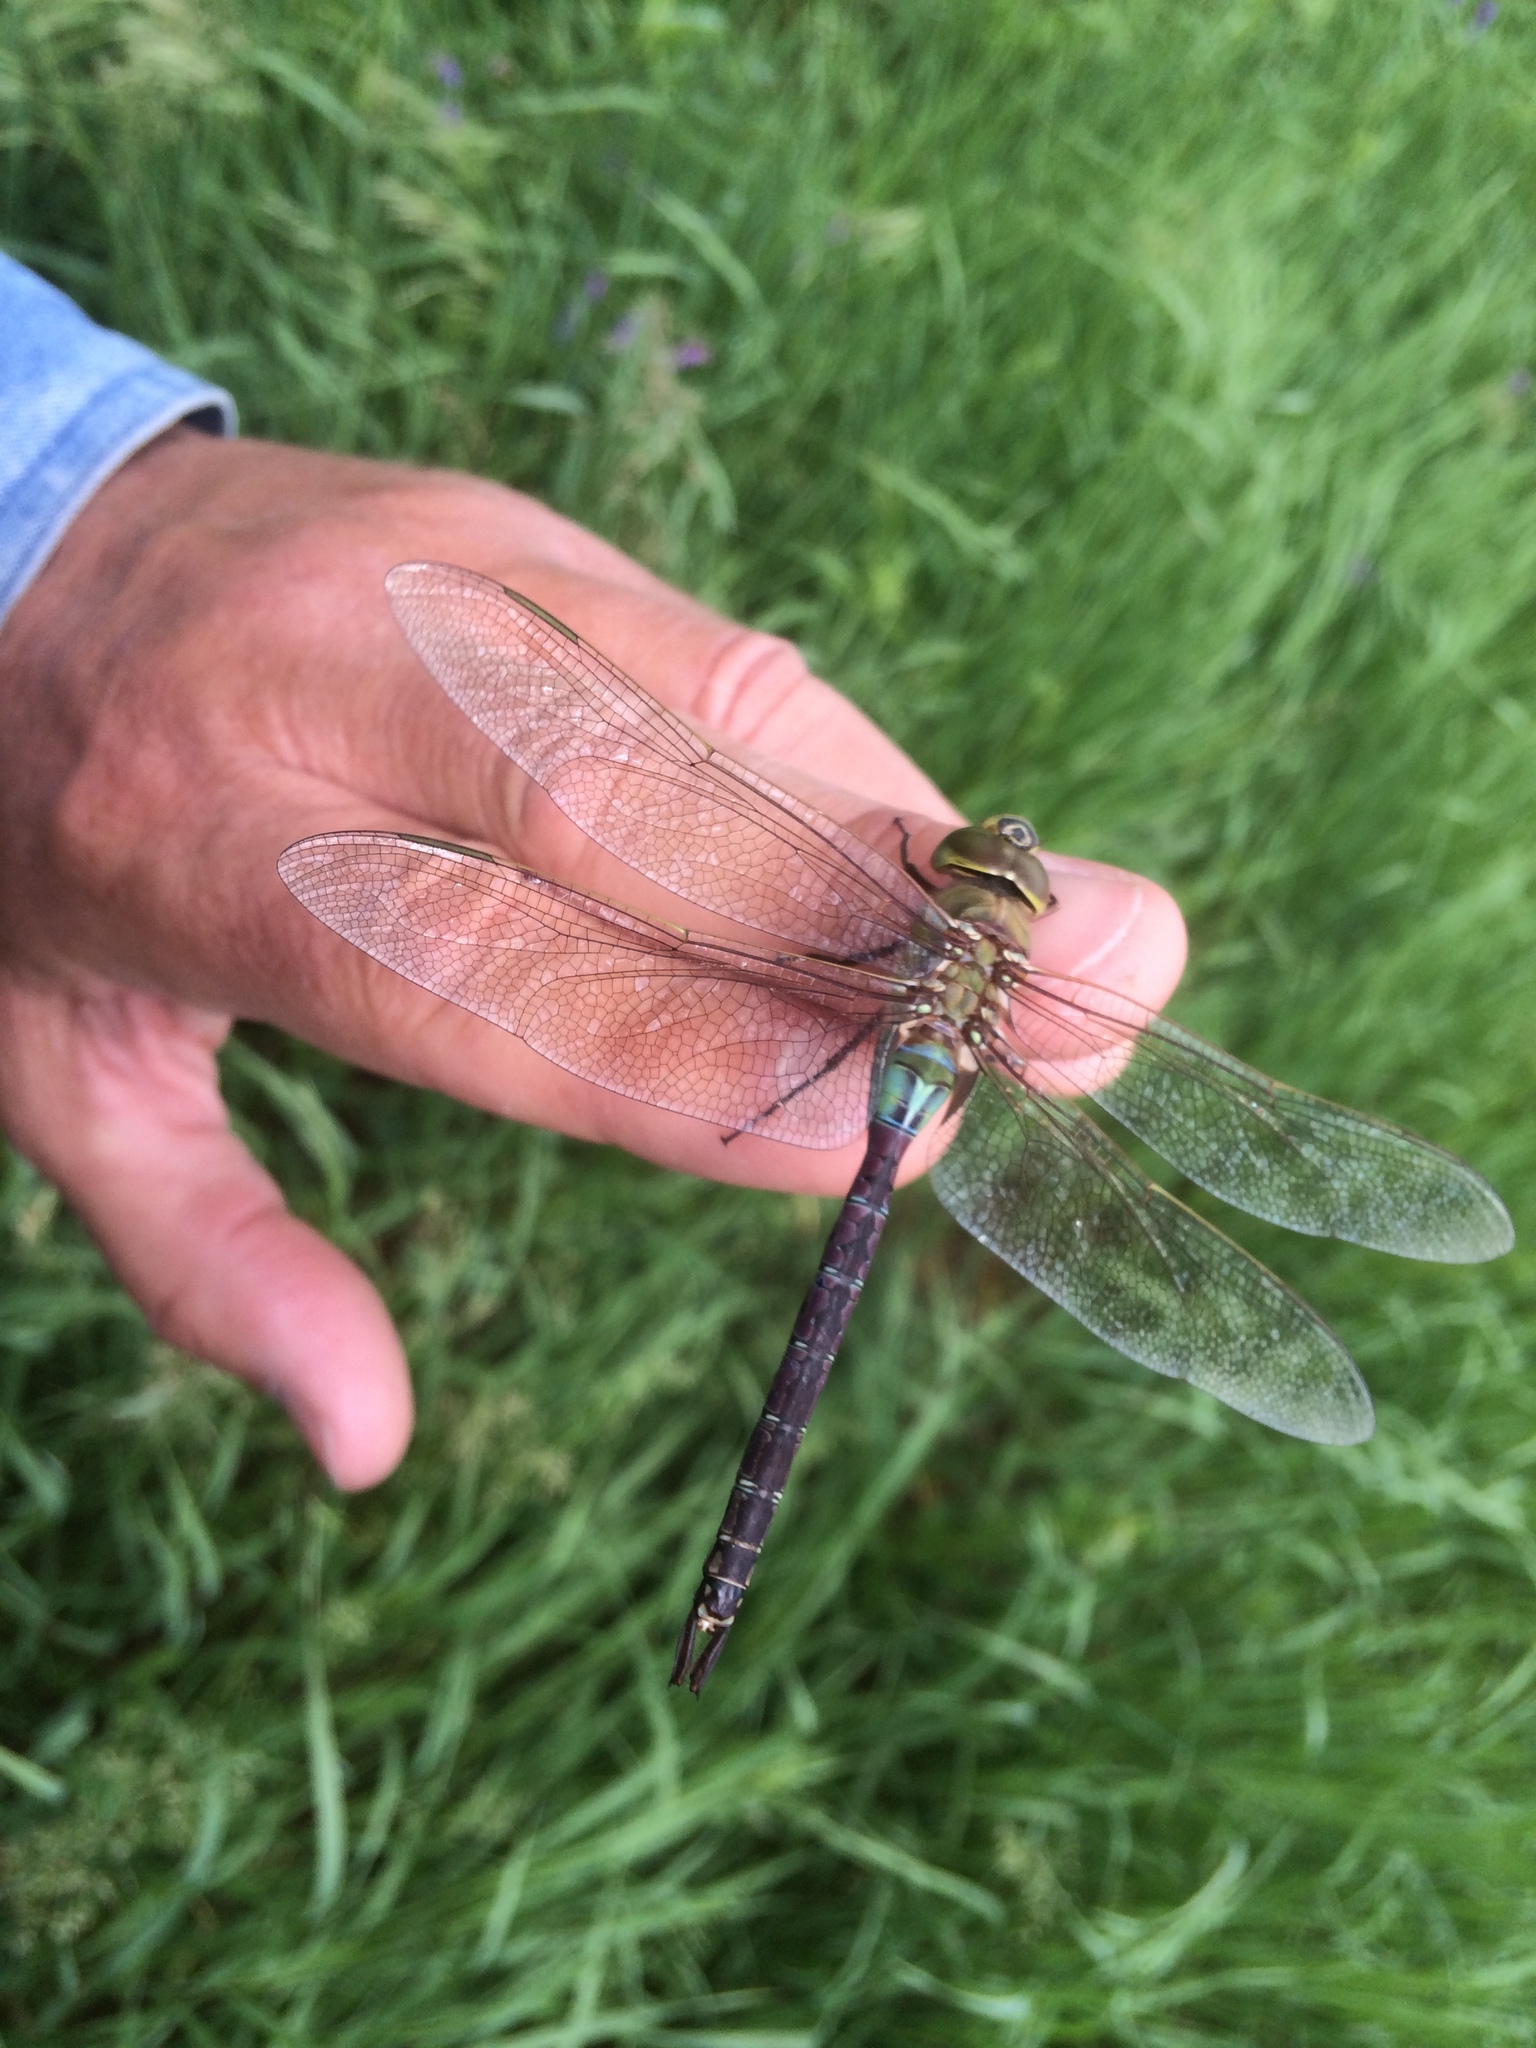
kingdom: Animalia
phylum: Arthropoda
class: Insecta
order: Odonata
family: Aeshnidae
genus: Anax
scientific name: Anax junius
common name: Common green darner
